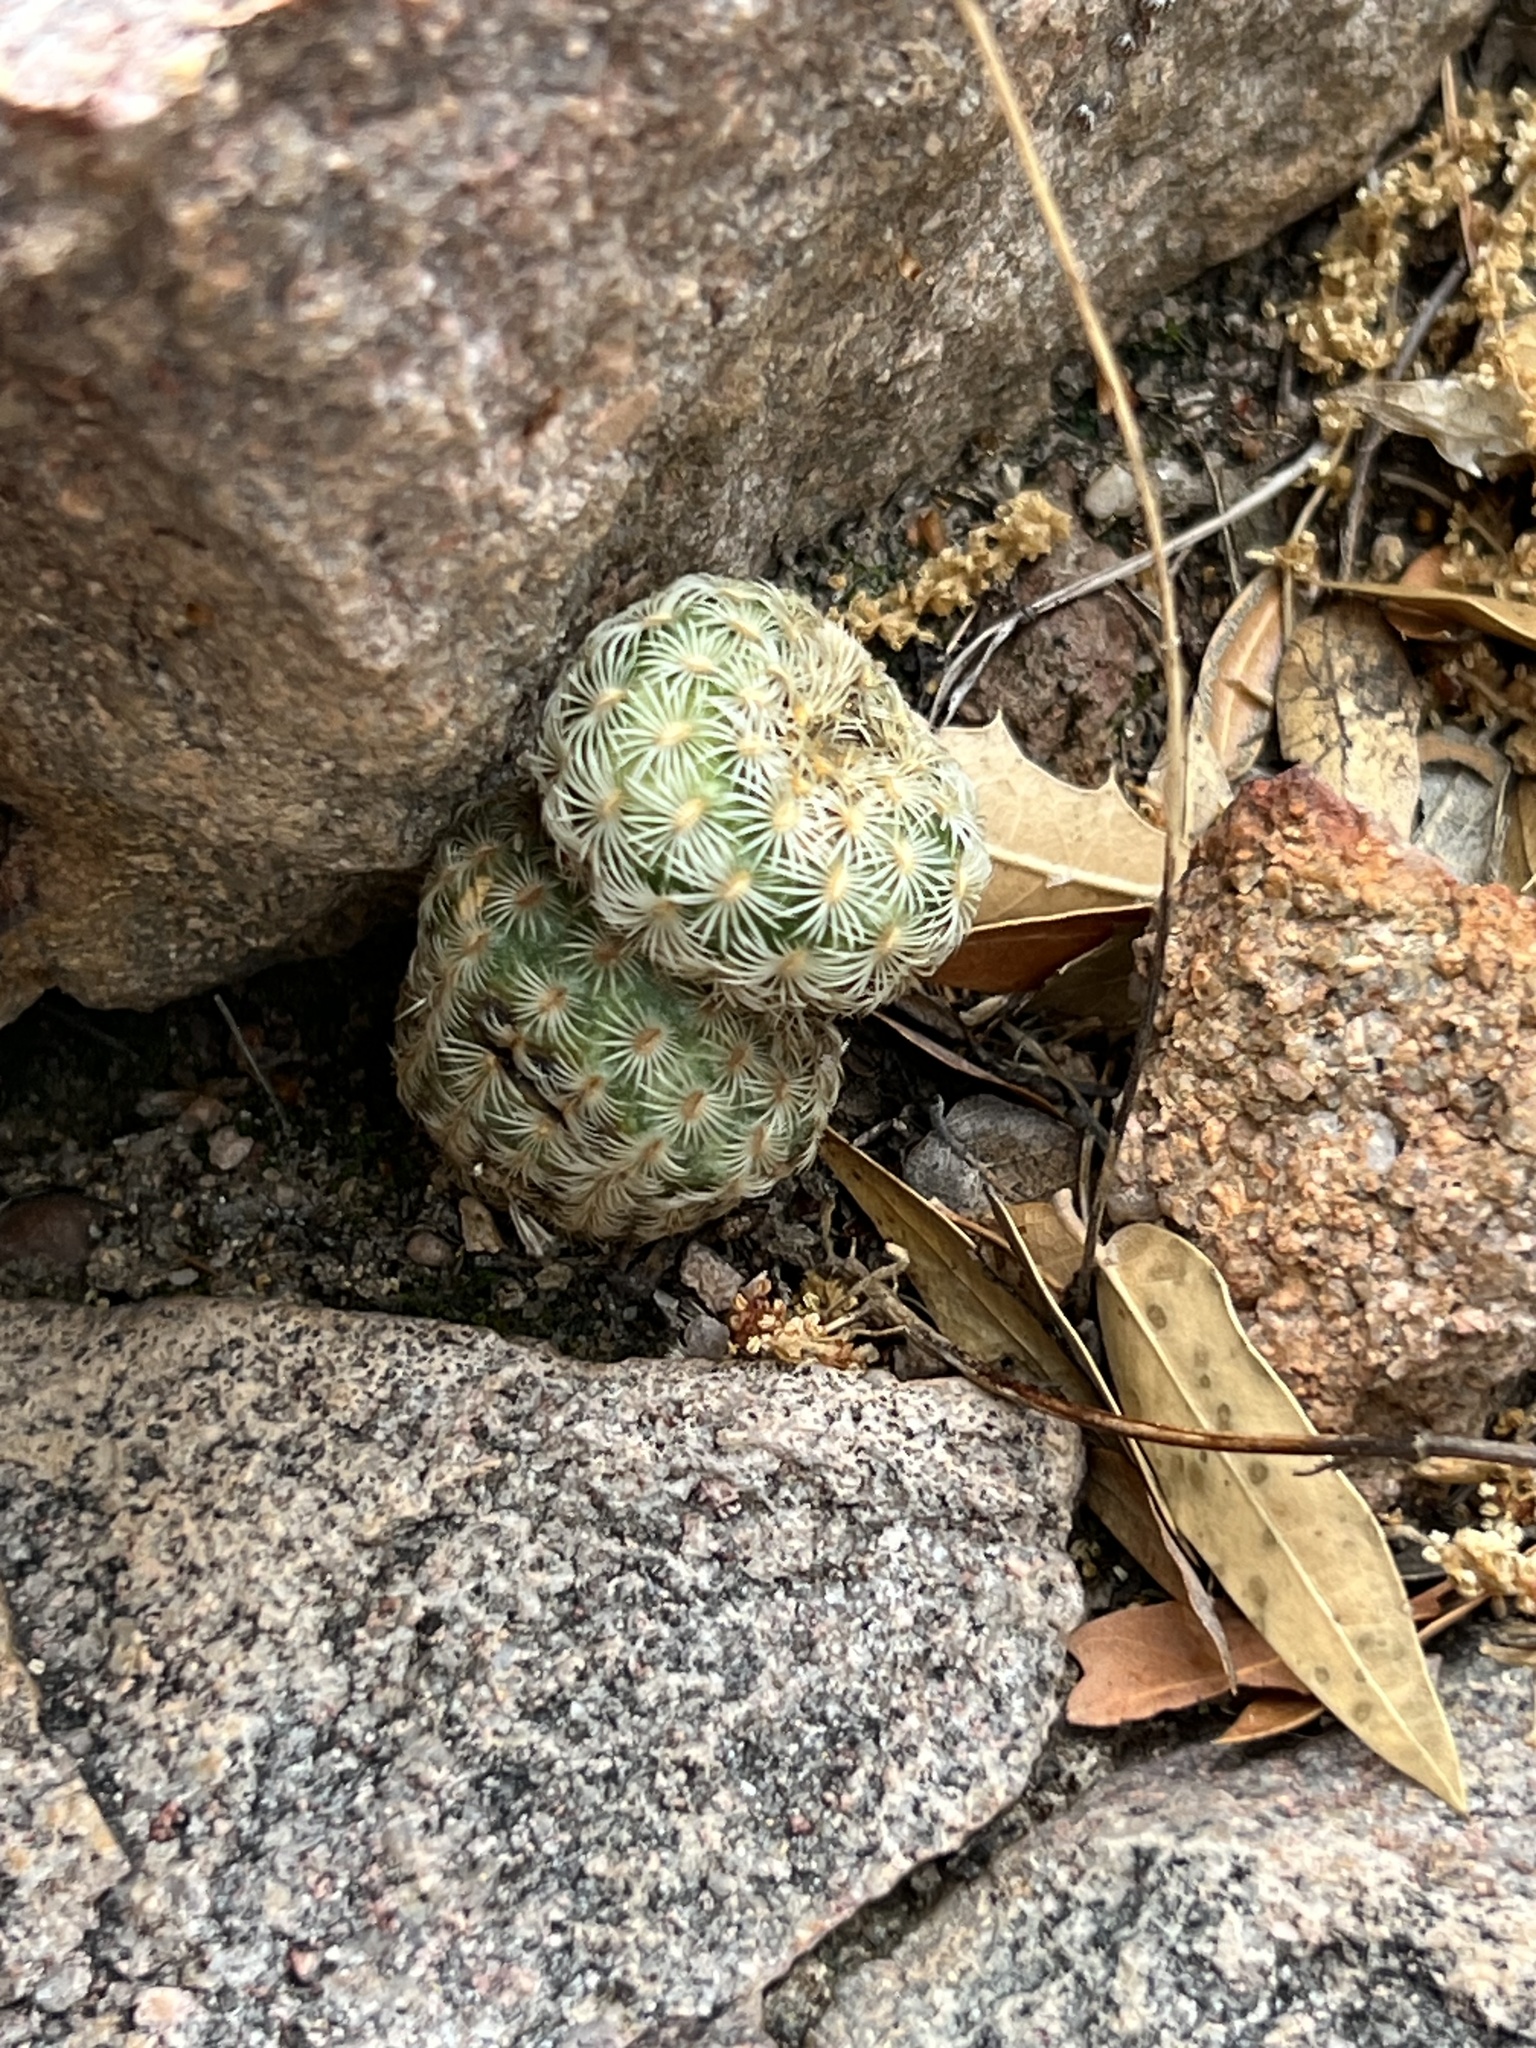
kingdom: Plantae
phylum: Tracheophyta
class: Magnoliopsida
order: Caryophyllales
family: Cactaceae
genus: Echinocereus
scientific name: Echinocereus rigidissimus
